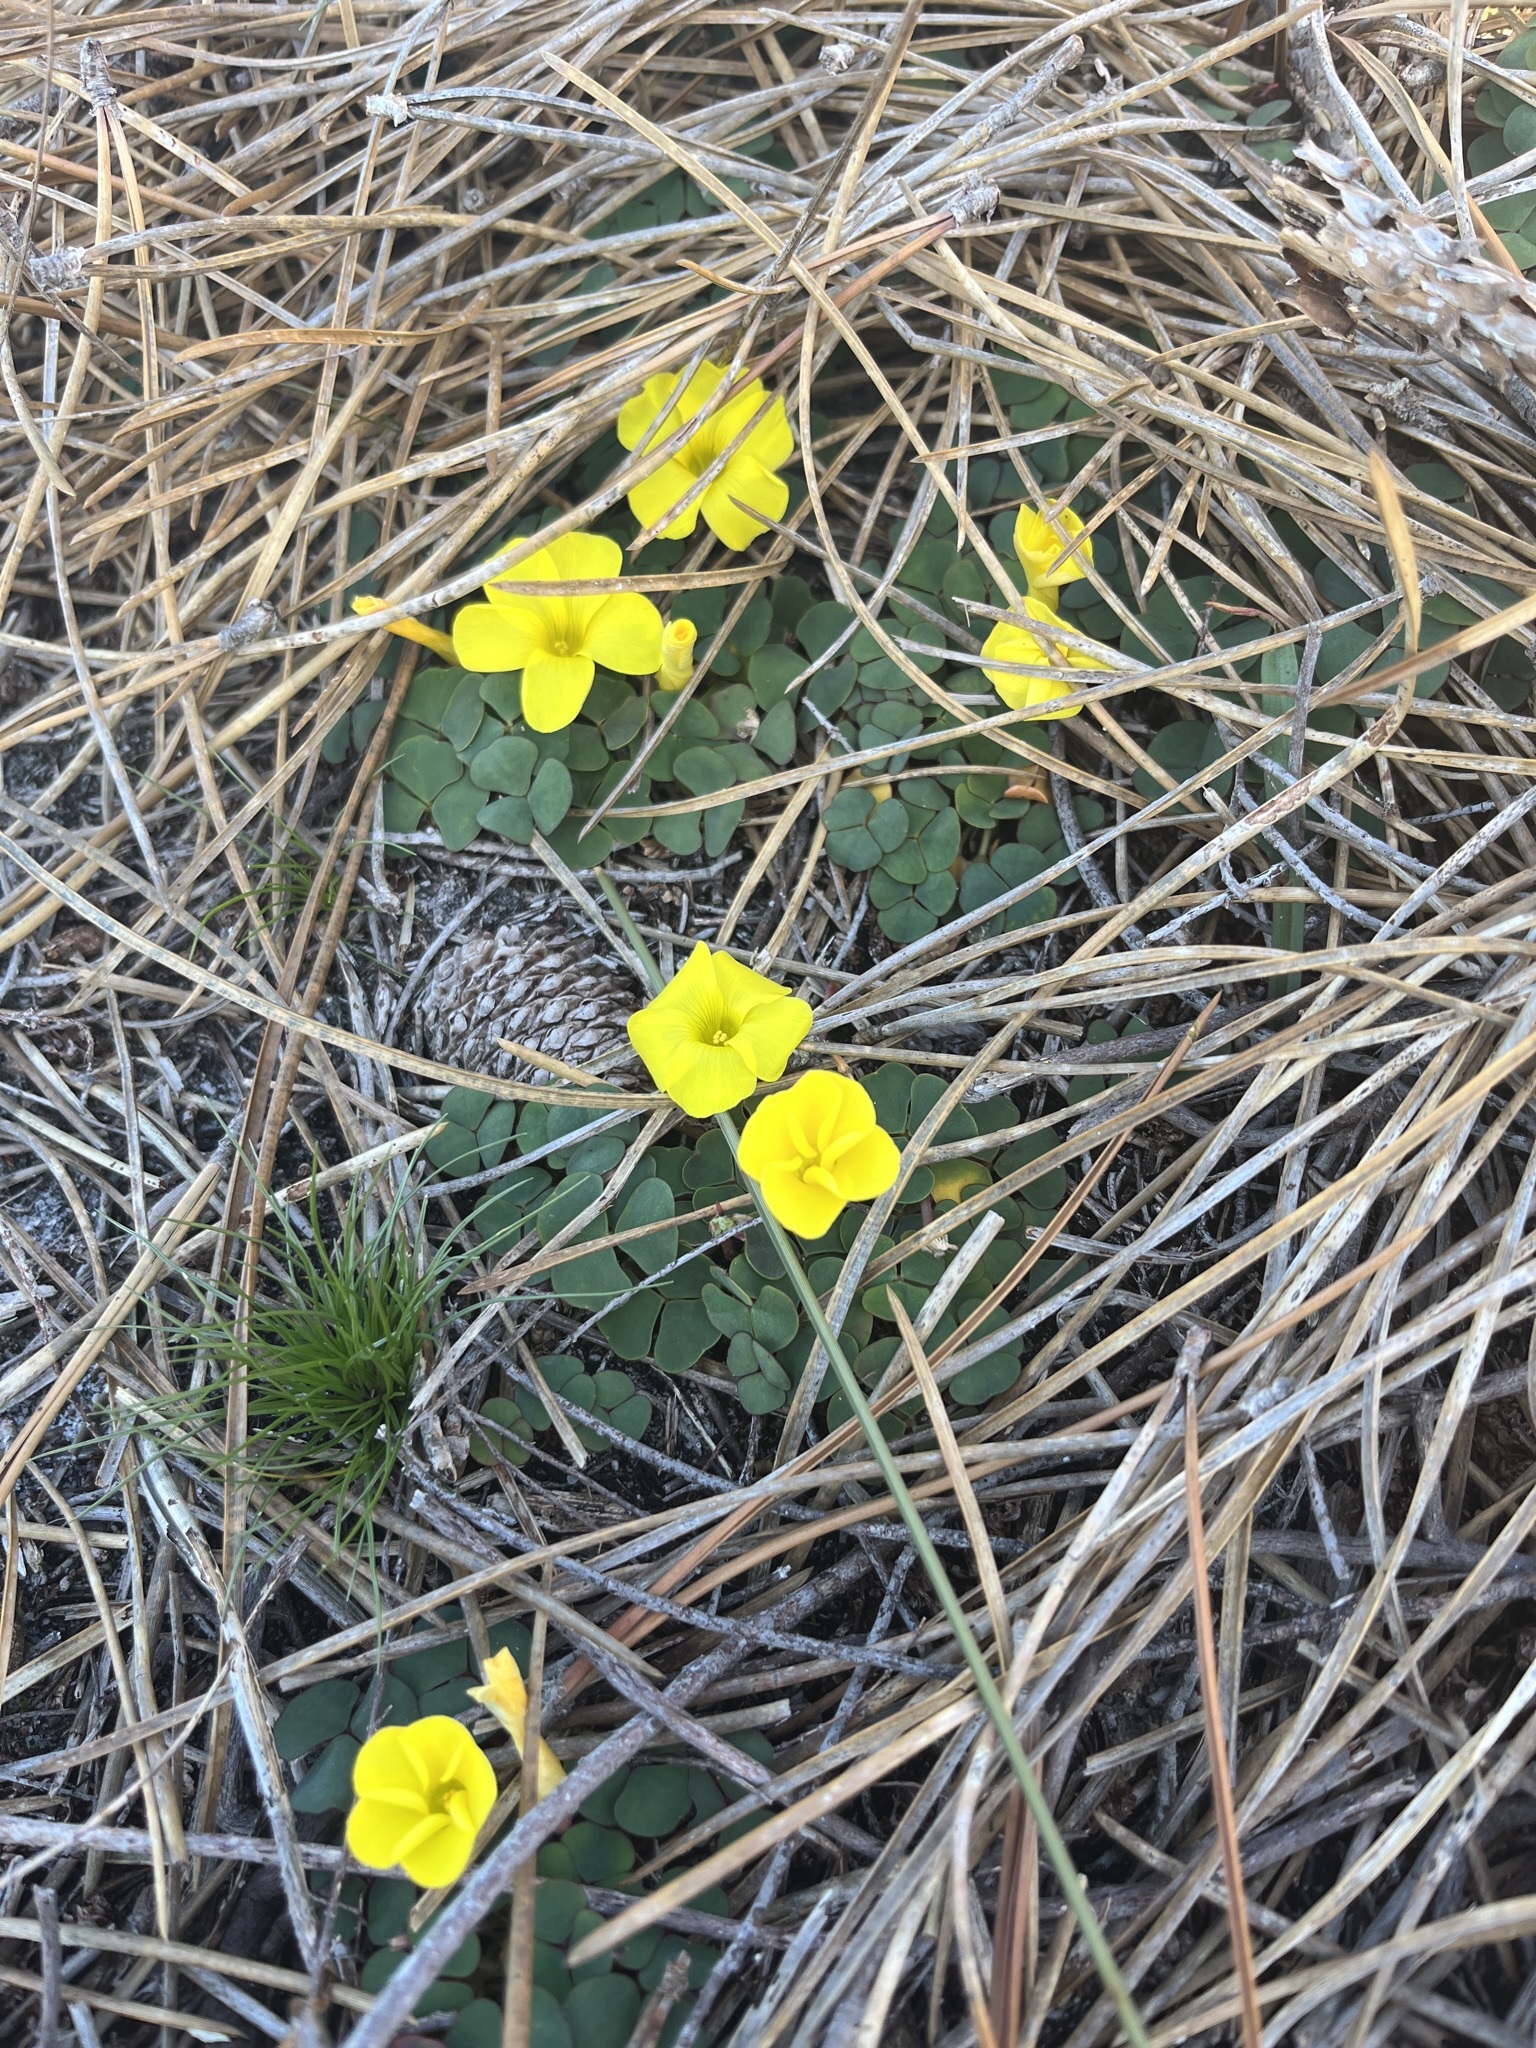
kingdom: Plantae
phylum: Tracheophyta
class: Magnoliopsida
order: Oxalidales
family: Oxalidaceae
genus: Oxalis
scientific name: Oxalis luteola
